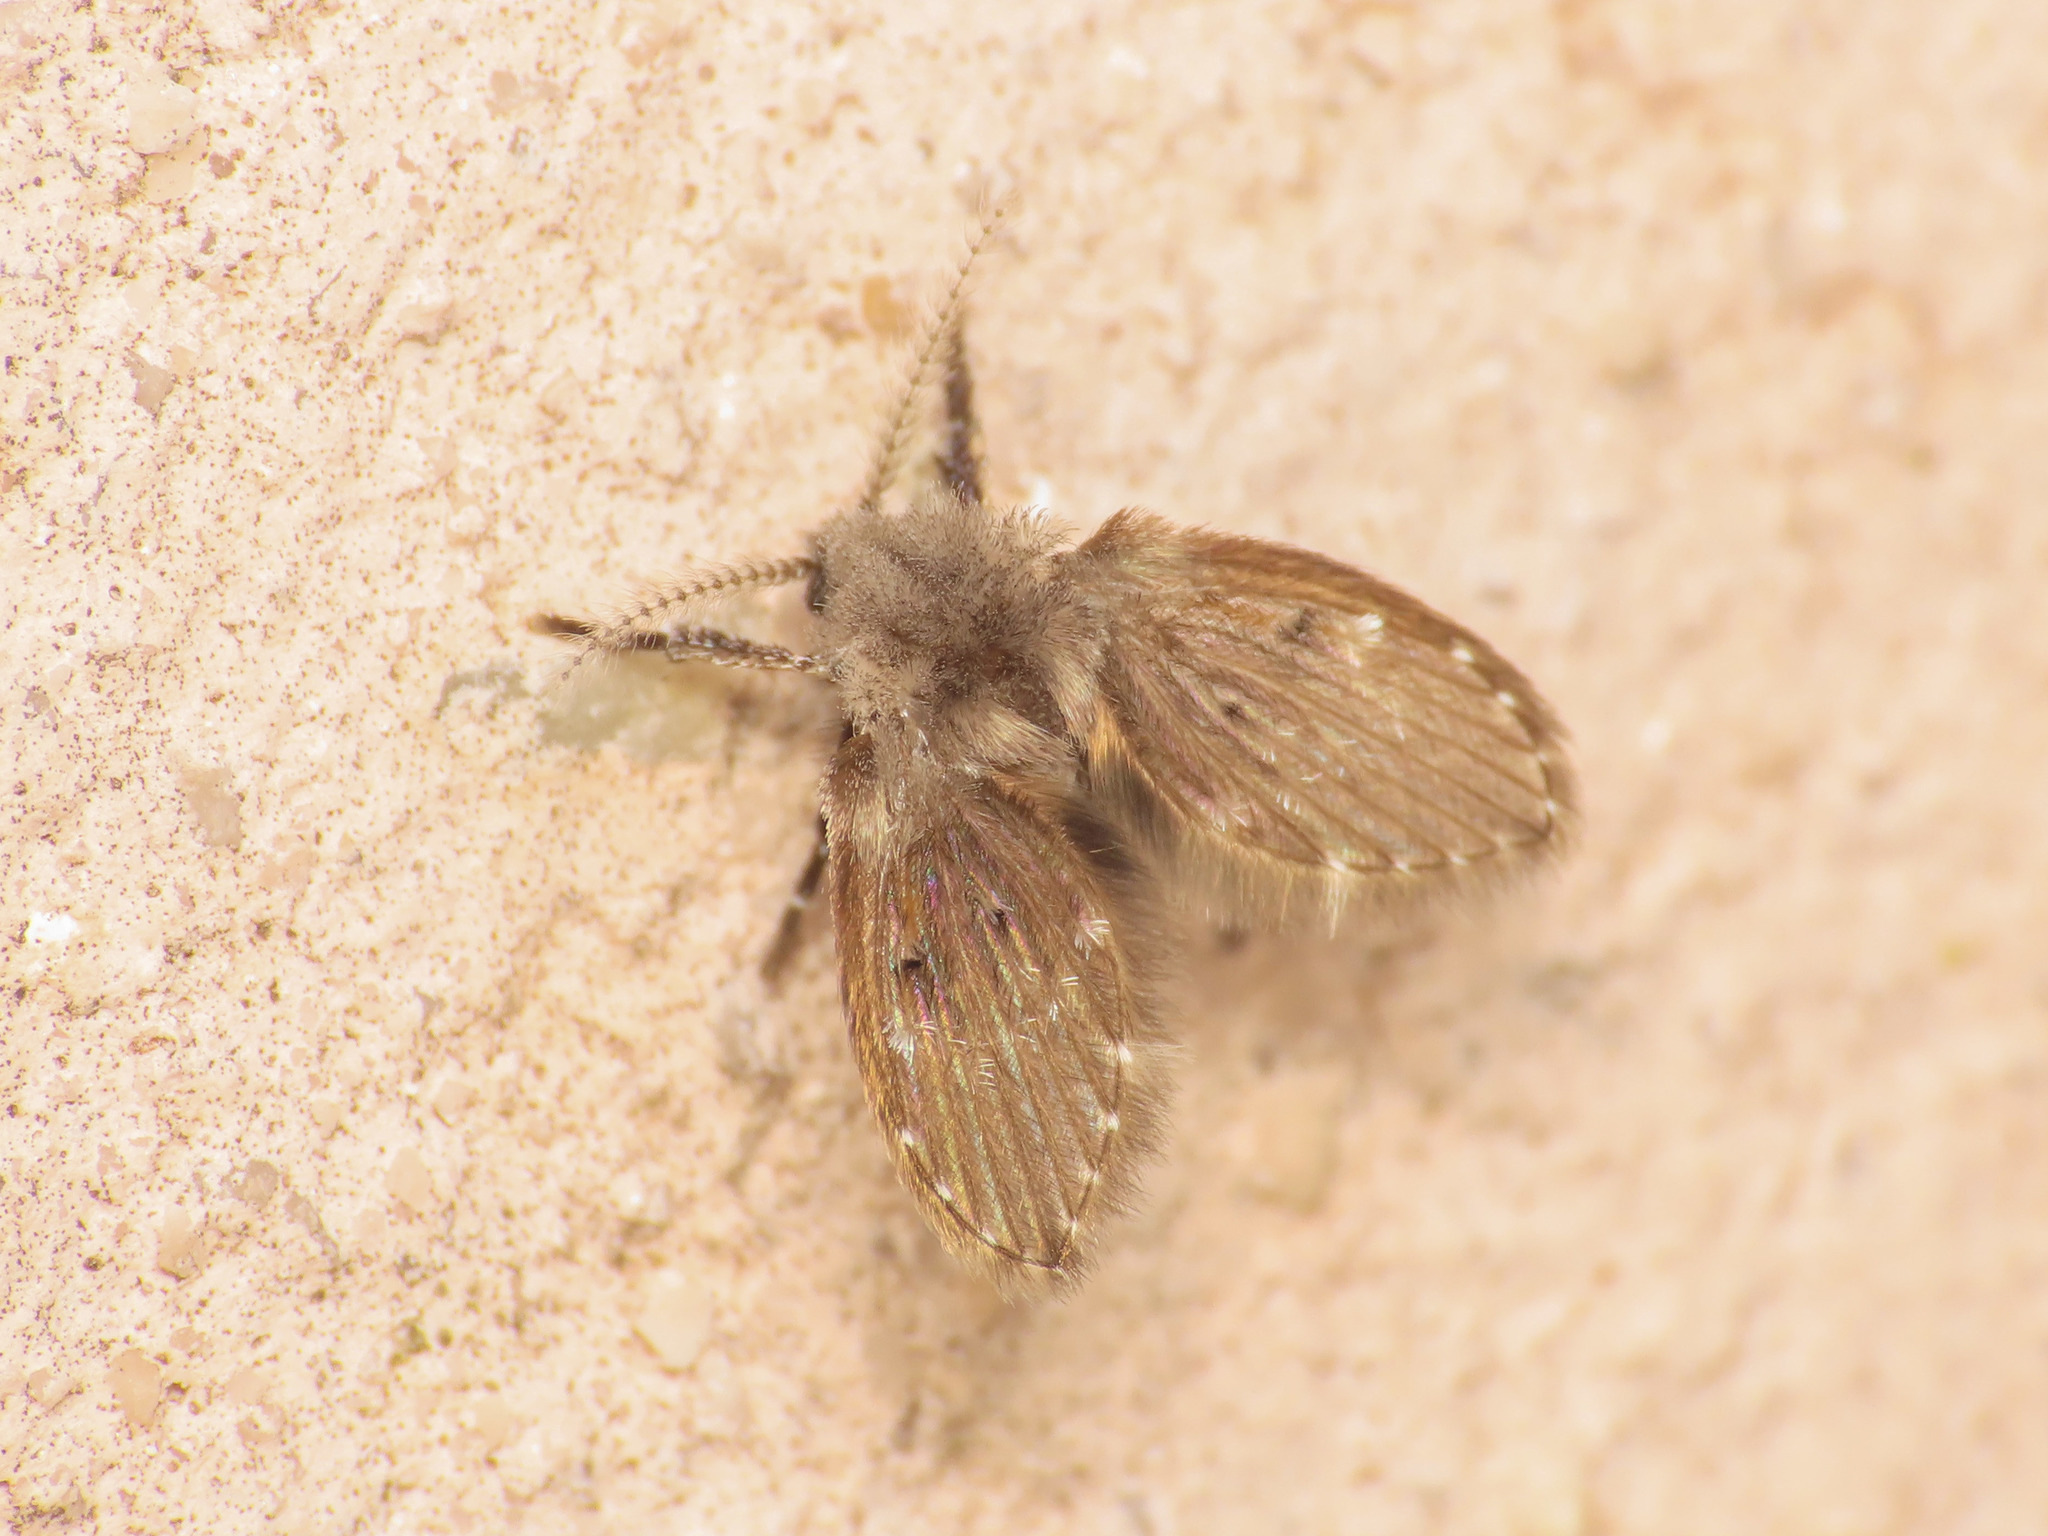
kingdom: Animalia
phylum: Arthropoda
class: Insecta
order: Diptera
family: Psychodidae
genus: Clogmia
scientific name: Clogmia albipunctatus
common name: White-spotted moth fly
